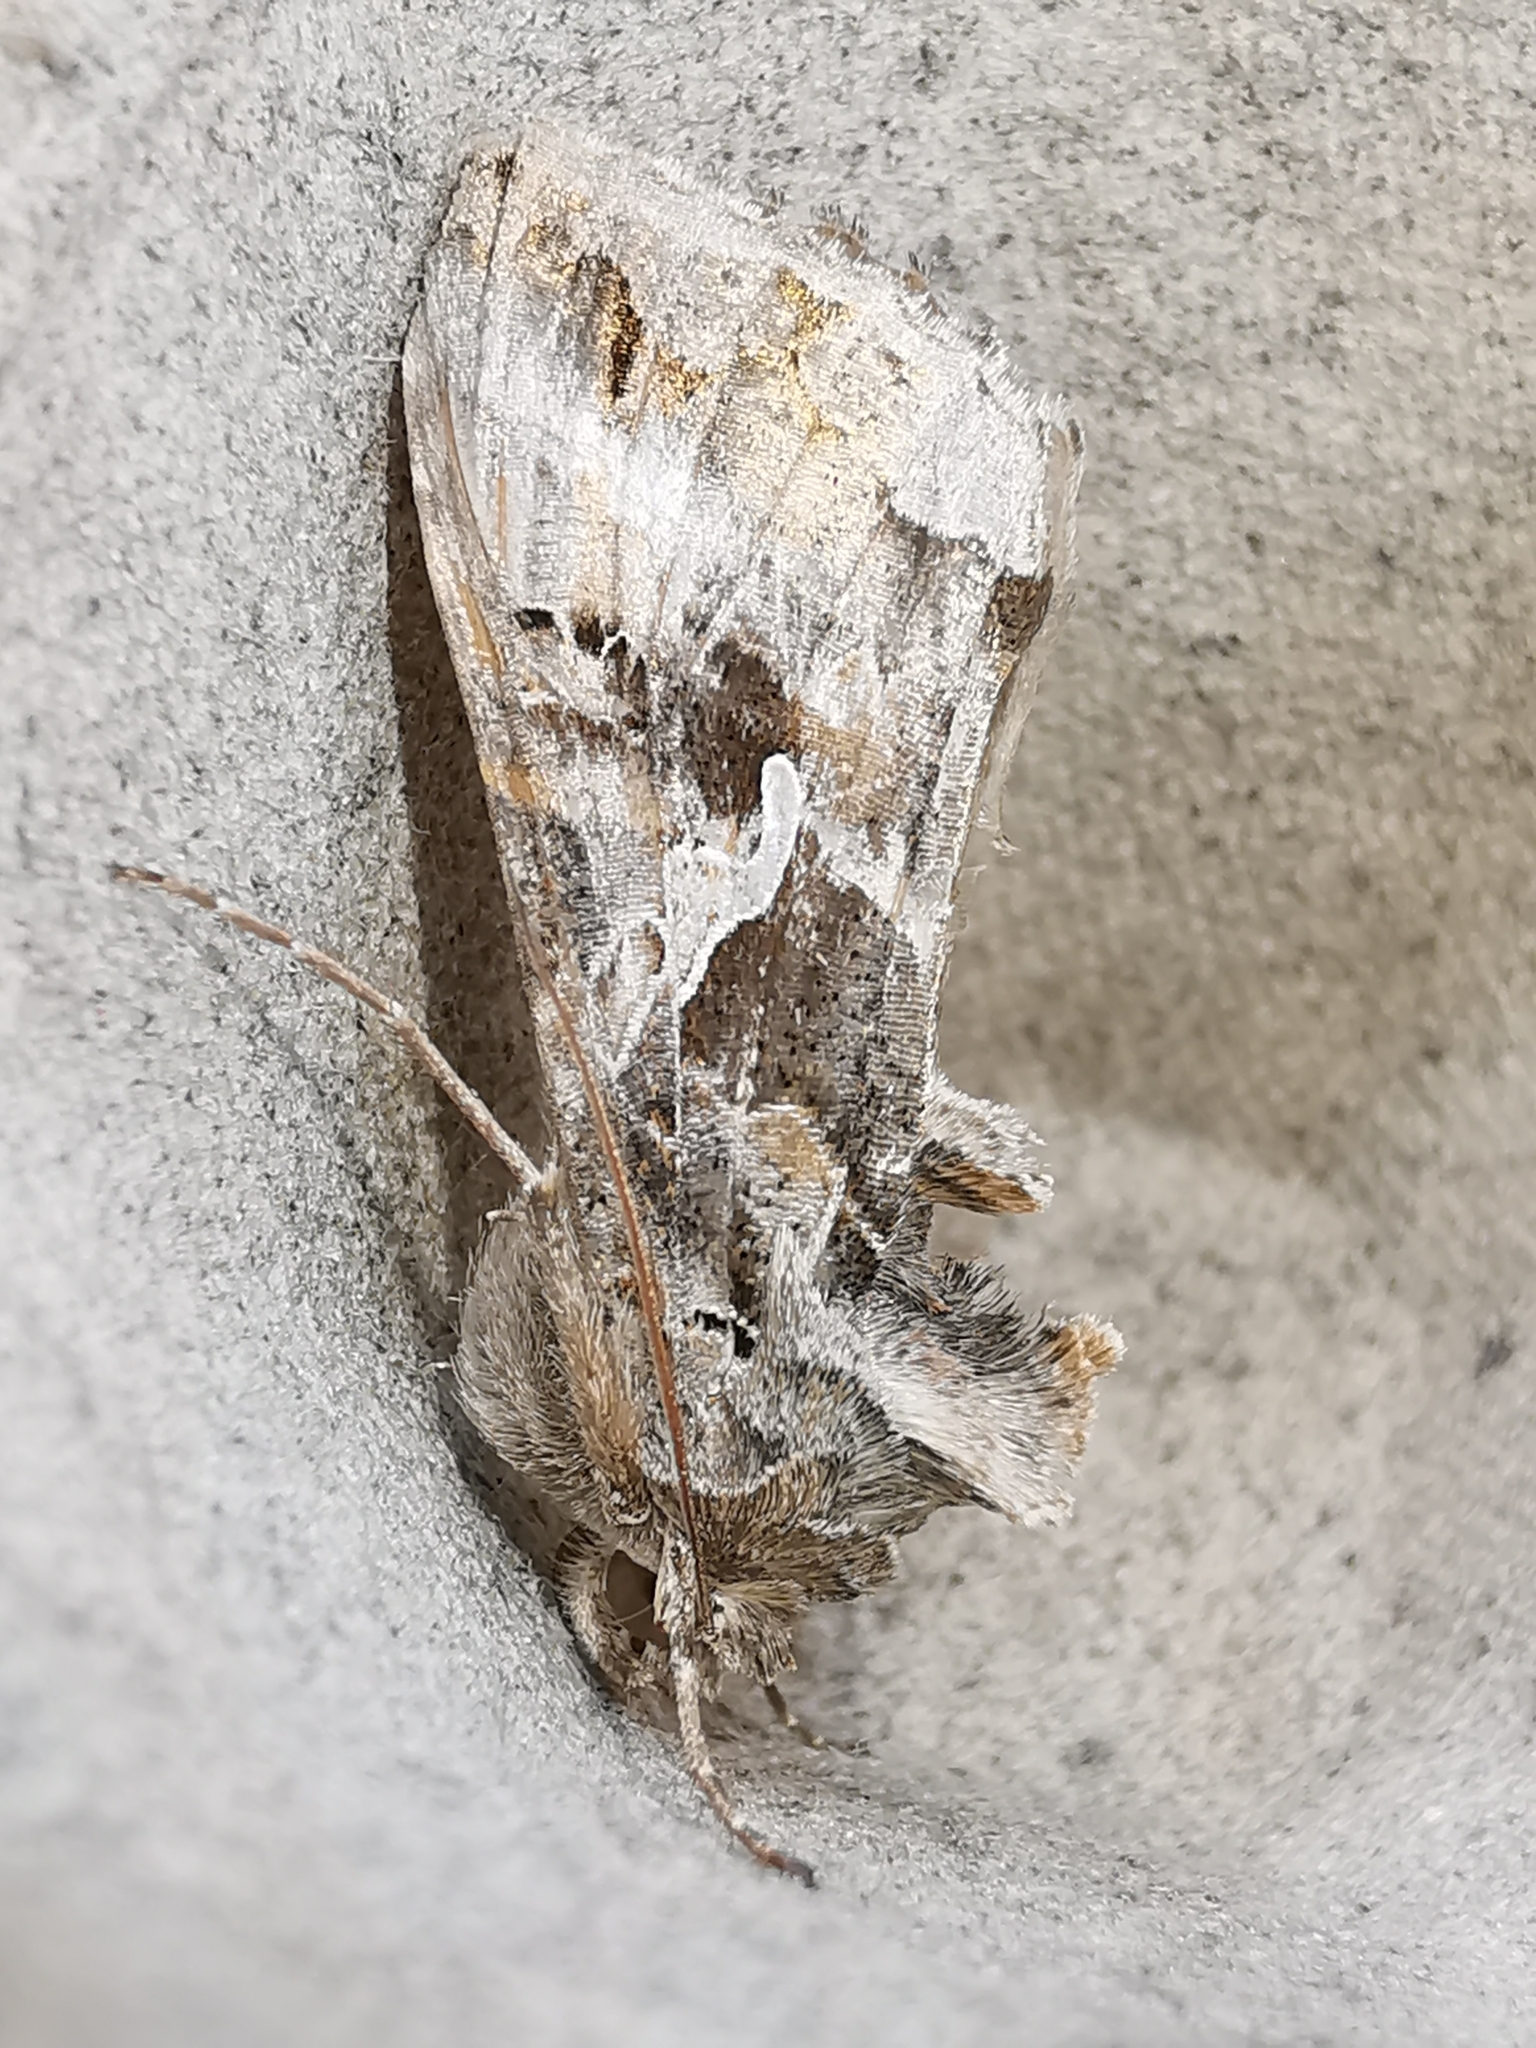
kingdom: Animalia
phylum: Arthropoda
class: Insecta
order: Lepidoptera
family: Noctuidae
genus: Autographa
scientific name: Autographa gamma
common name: Silver y
